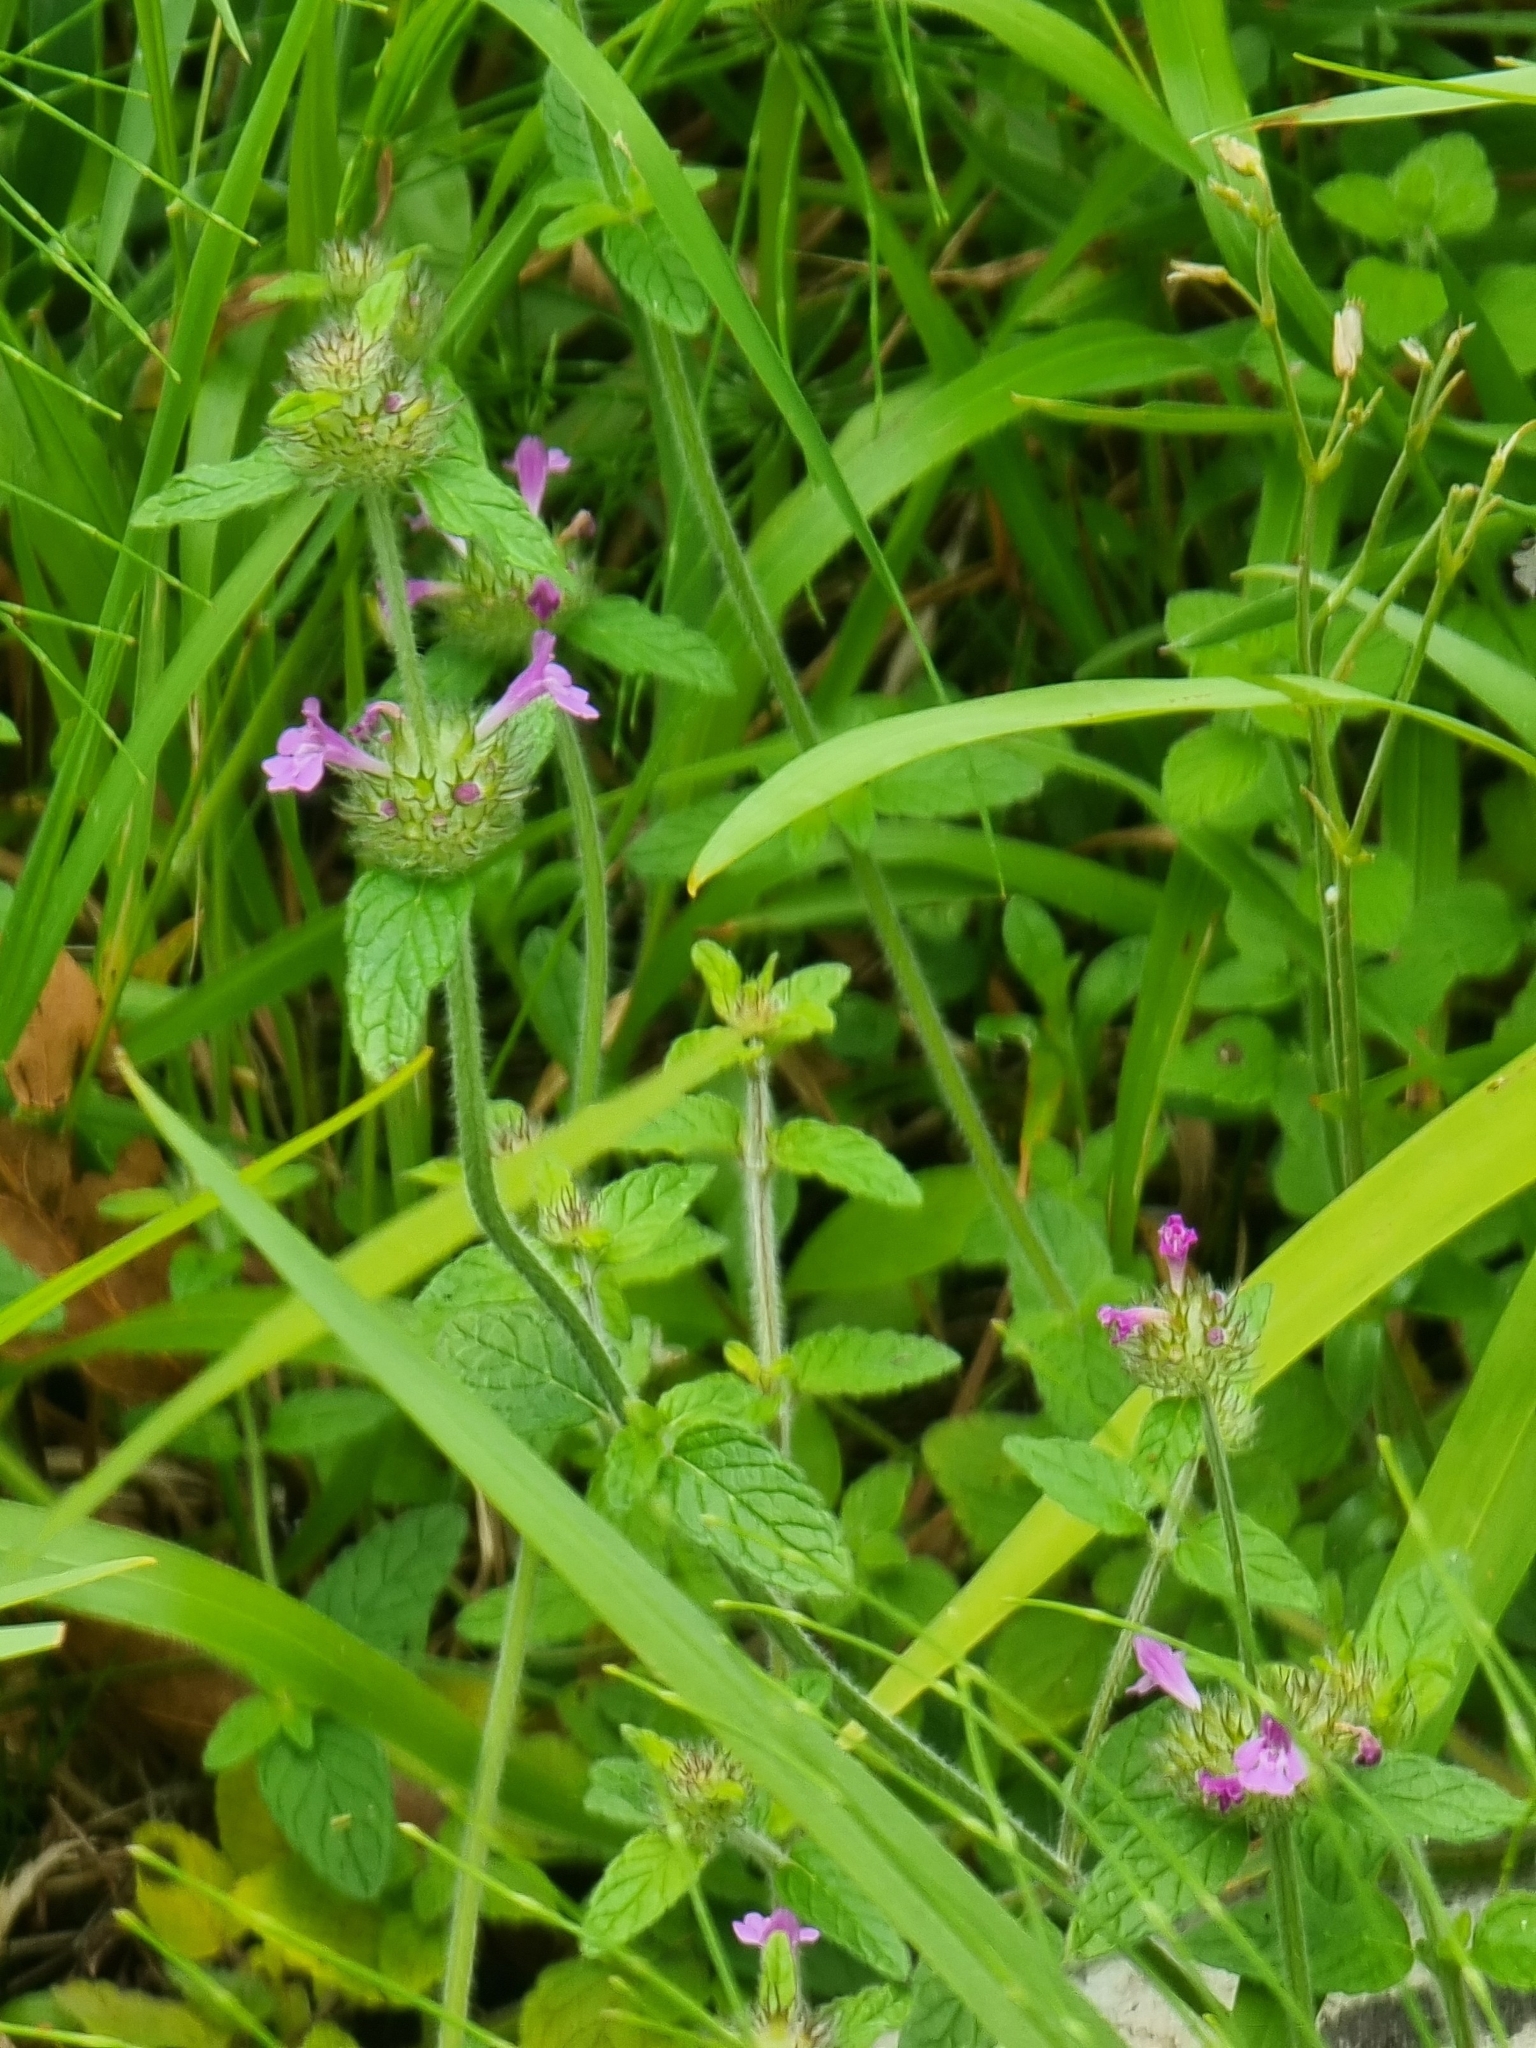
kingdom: Plantae
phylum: Tracheophyta
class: Magnoliopsida
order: Lamiales
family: Lamiaceae
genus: Clinopodium
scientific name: Clinopodium vulgare
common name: Wild basil
